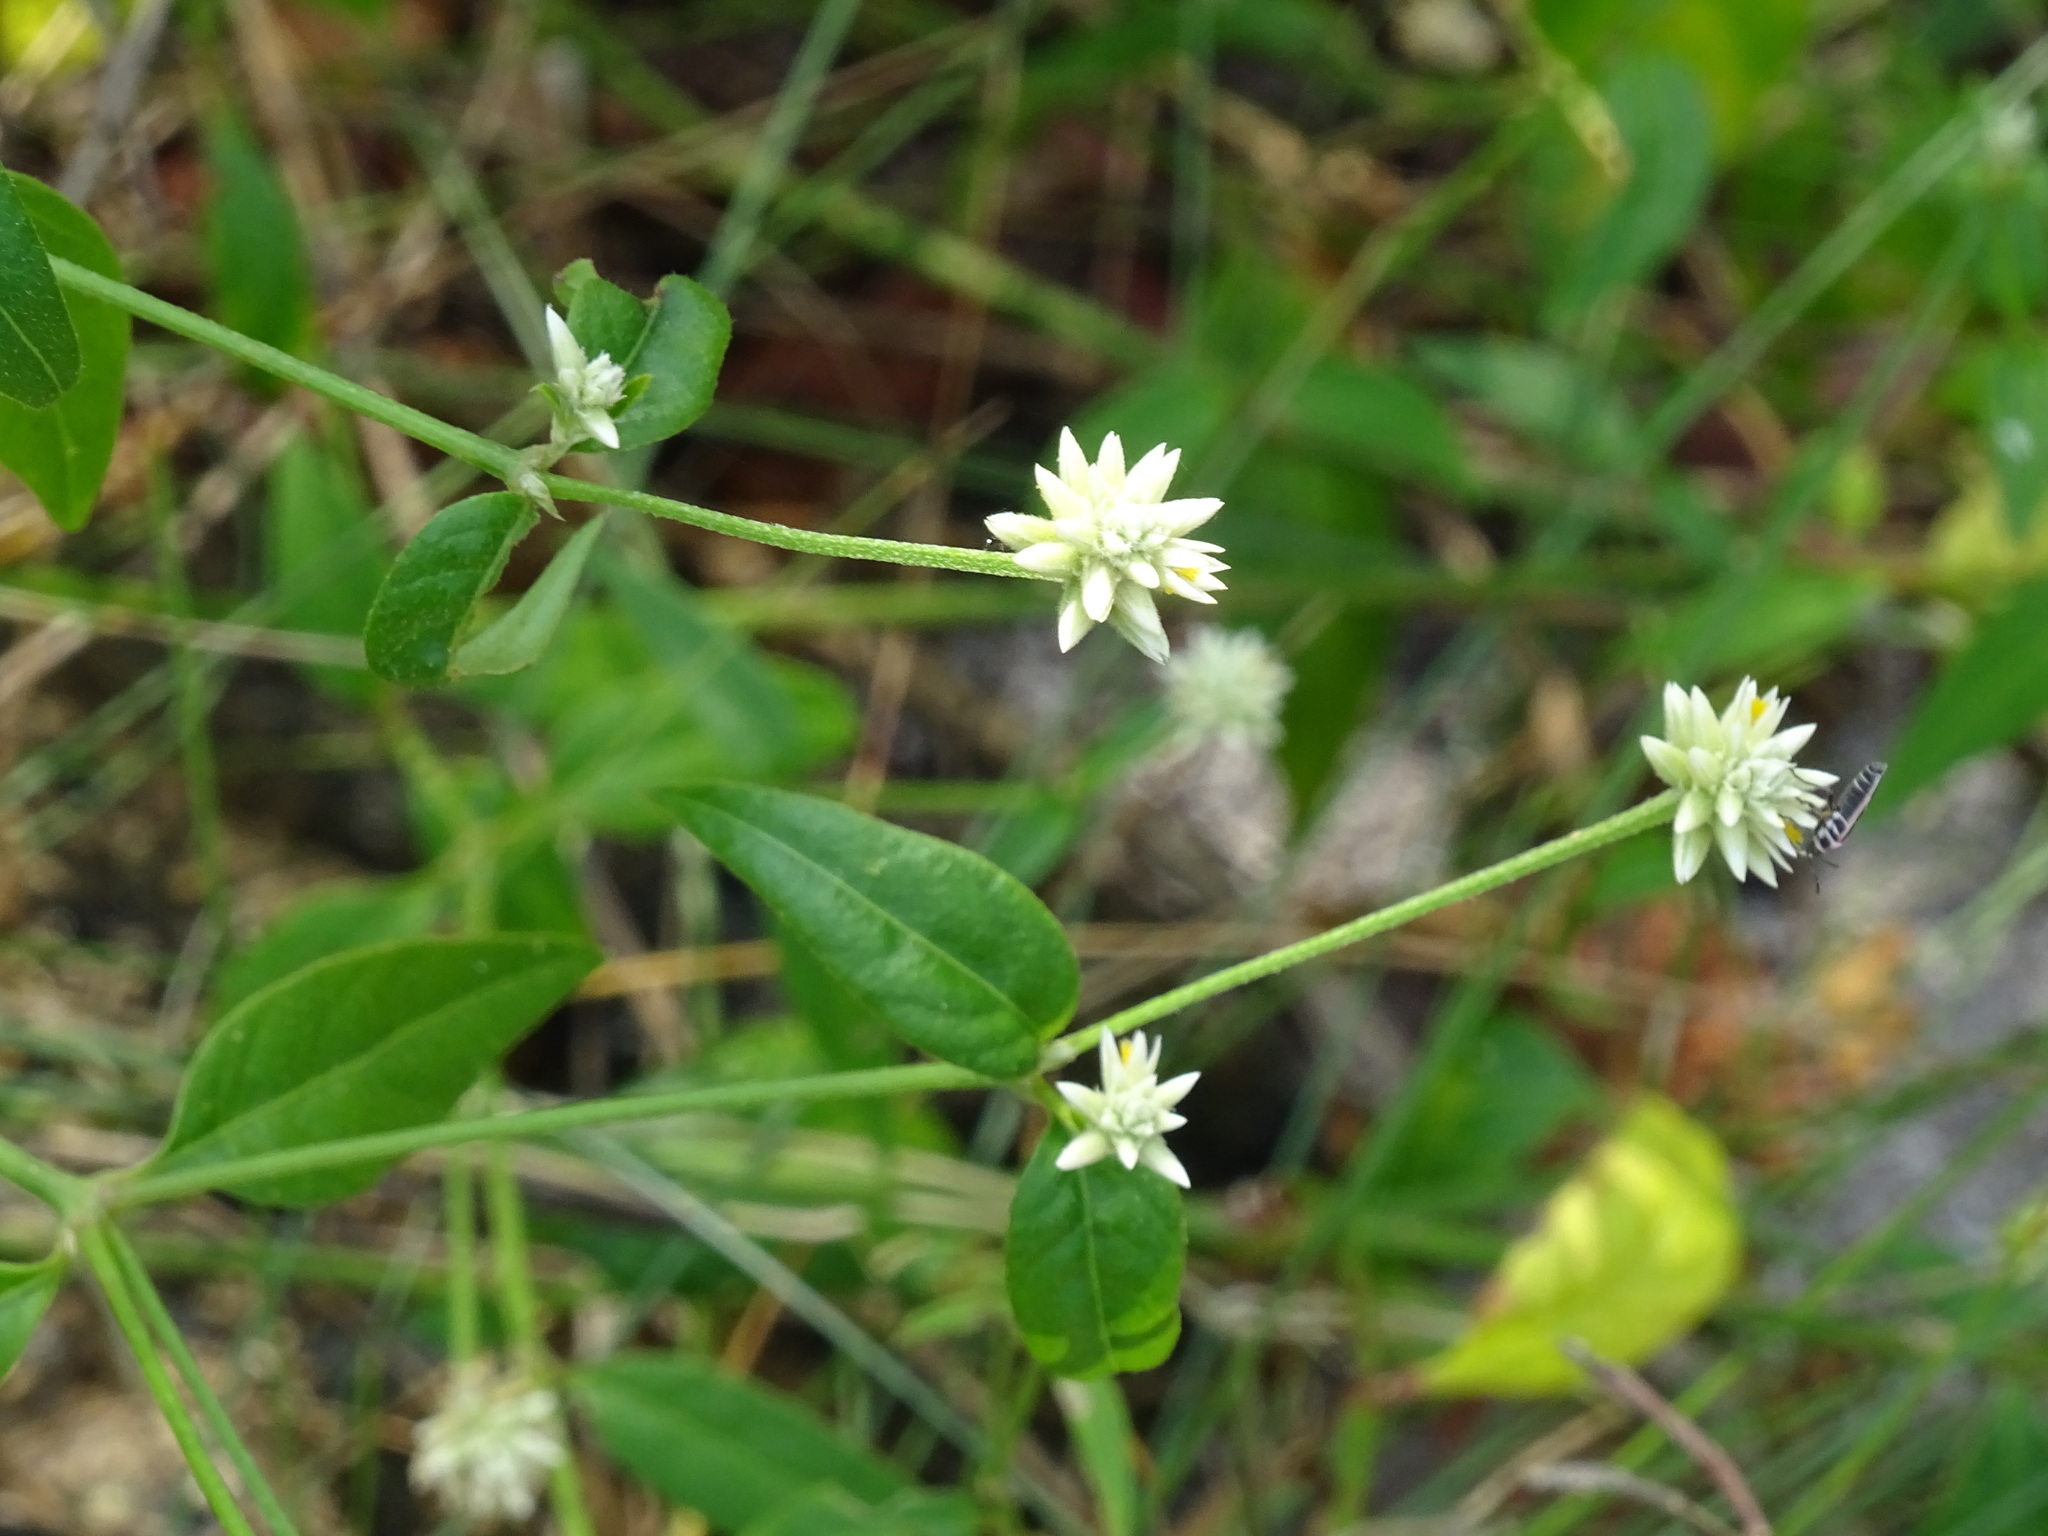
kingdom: Plantae
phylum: Tracheophyta
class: Magnoliopsida
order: Caryophyllales
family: Amaranthaceae
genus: Alternanthera
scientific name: Alternanthera flavescens
